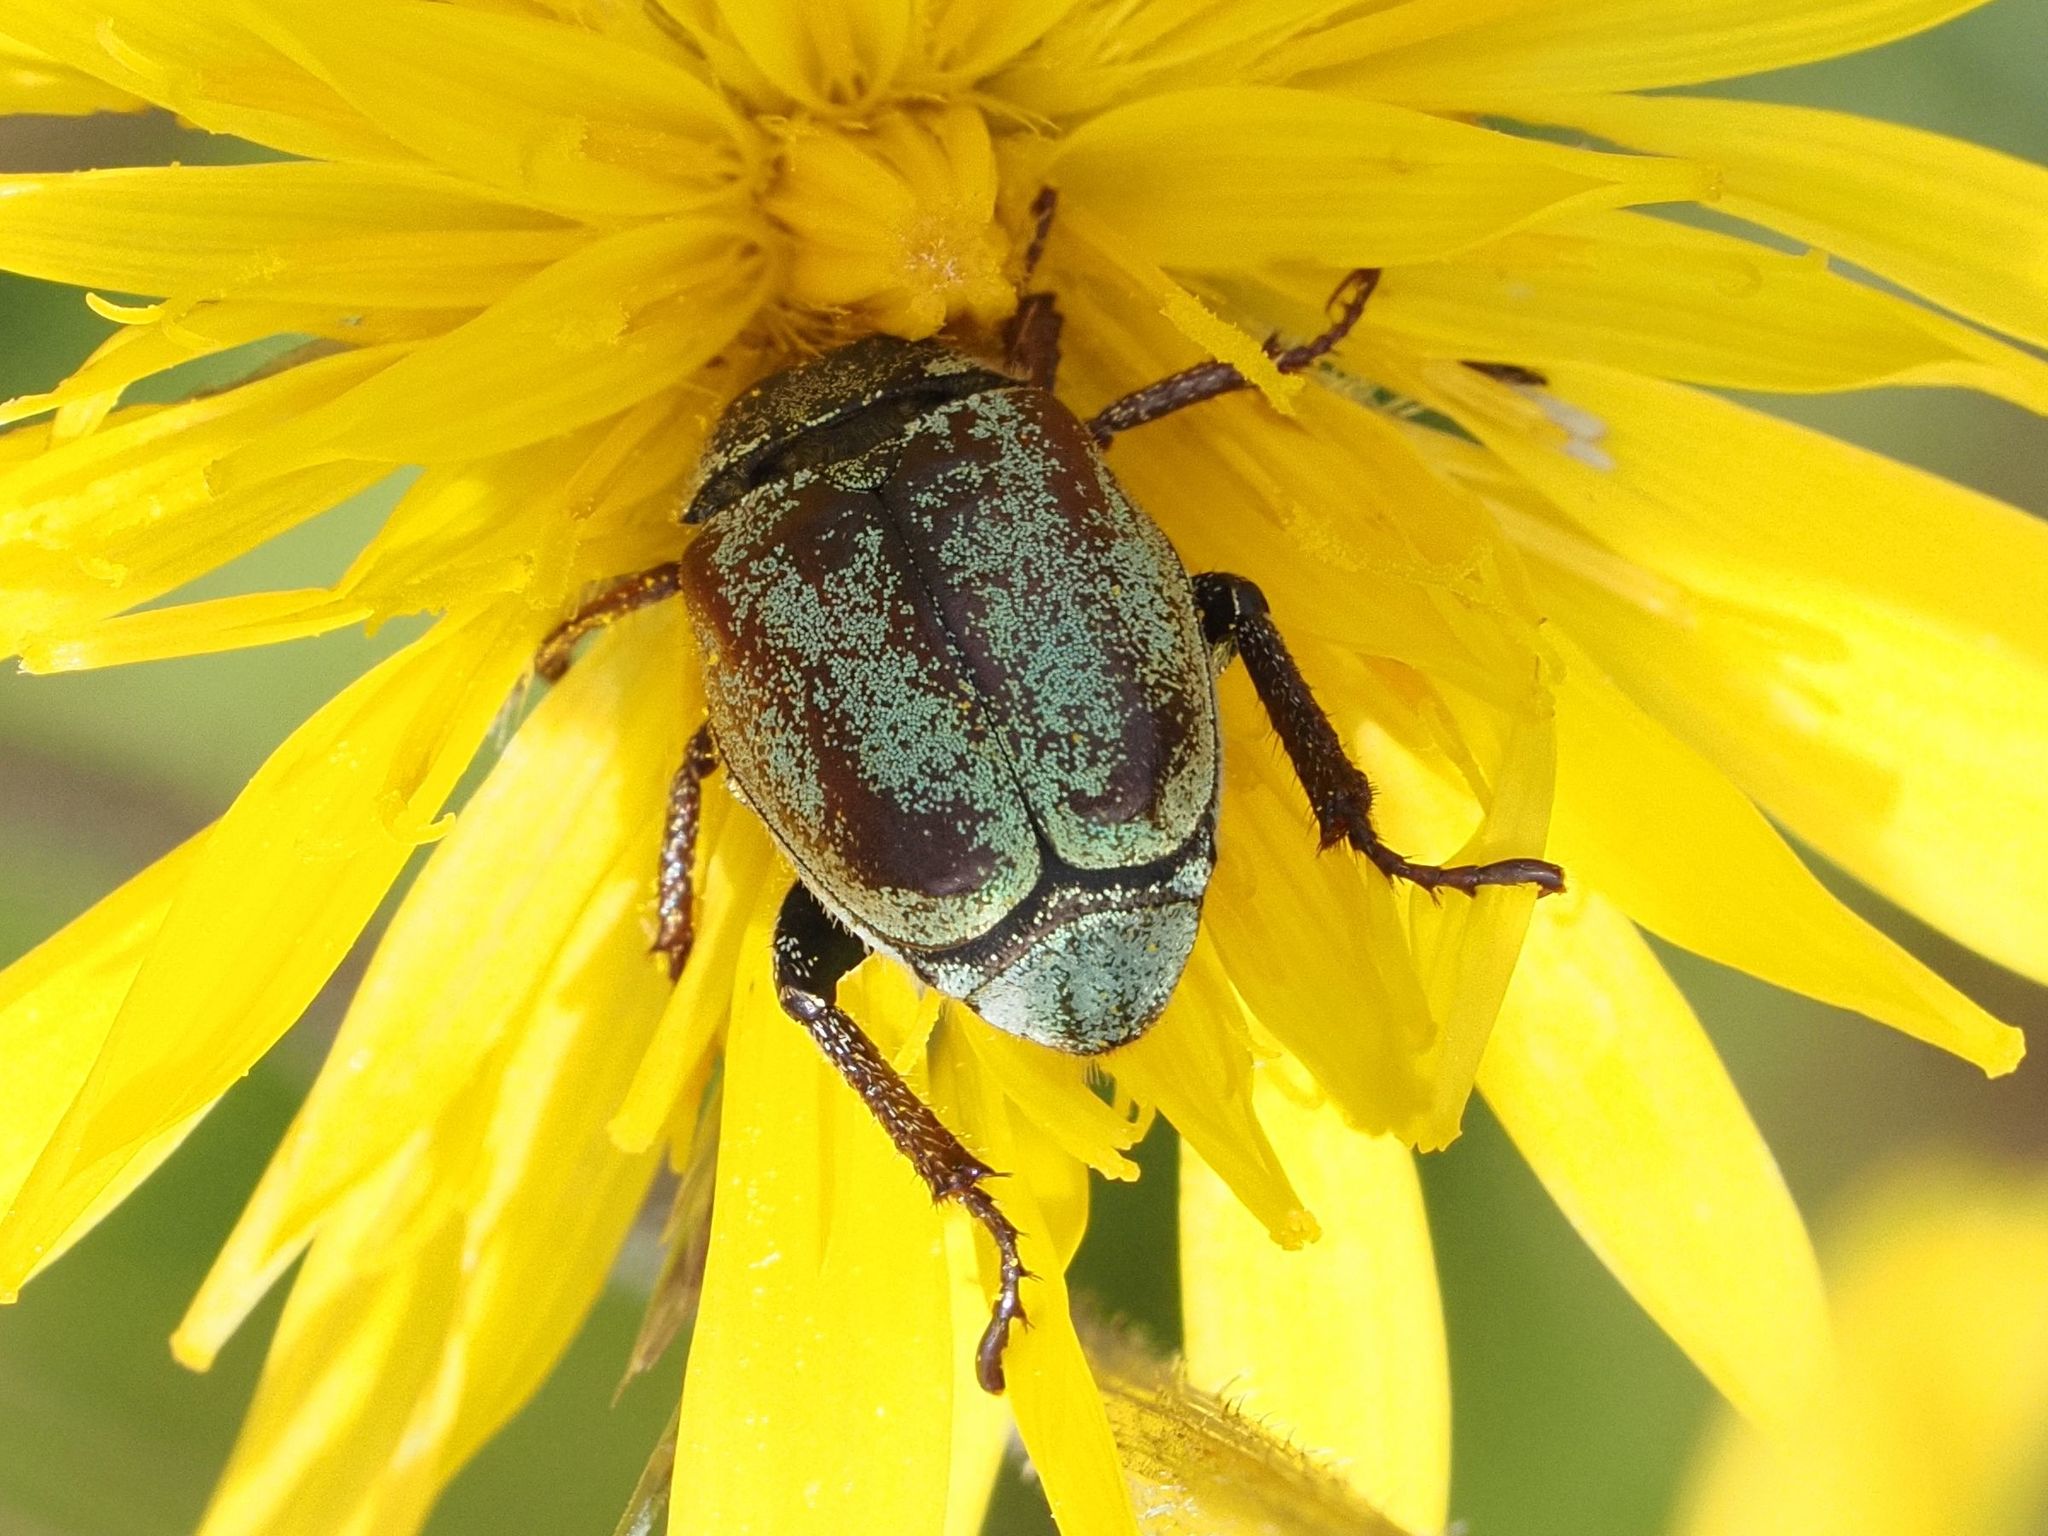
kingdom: Animalia
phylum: Arthropoda
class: Insecta
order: Coleoptera
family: Scarabaeidae
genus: Hoplia
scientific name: Hoplia argentea
